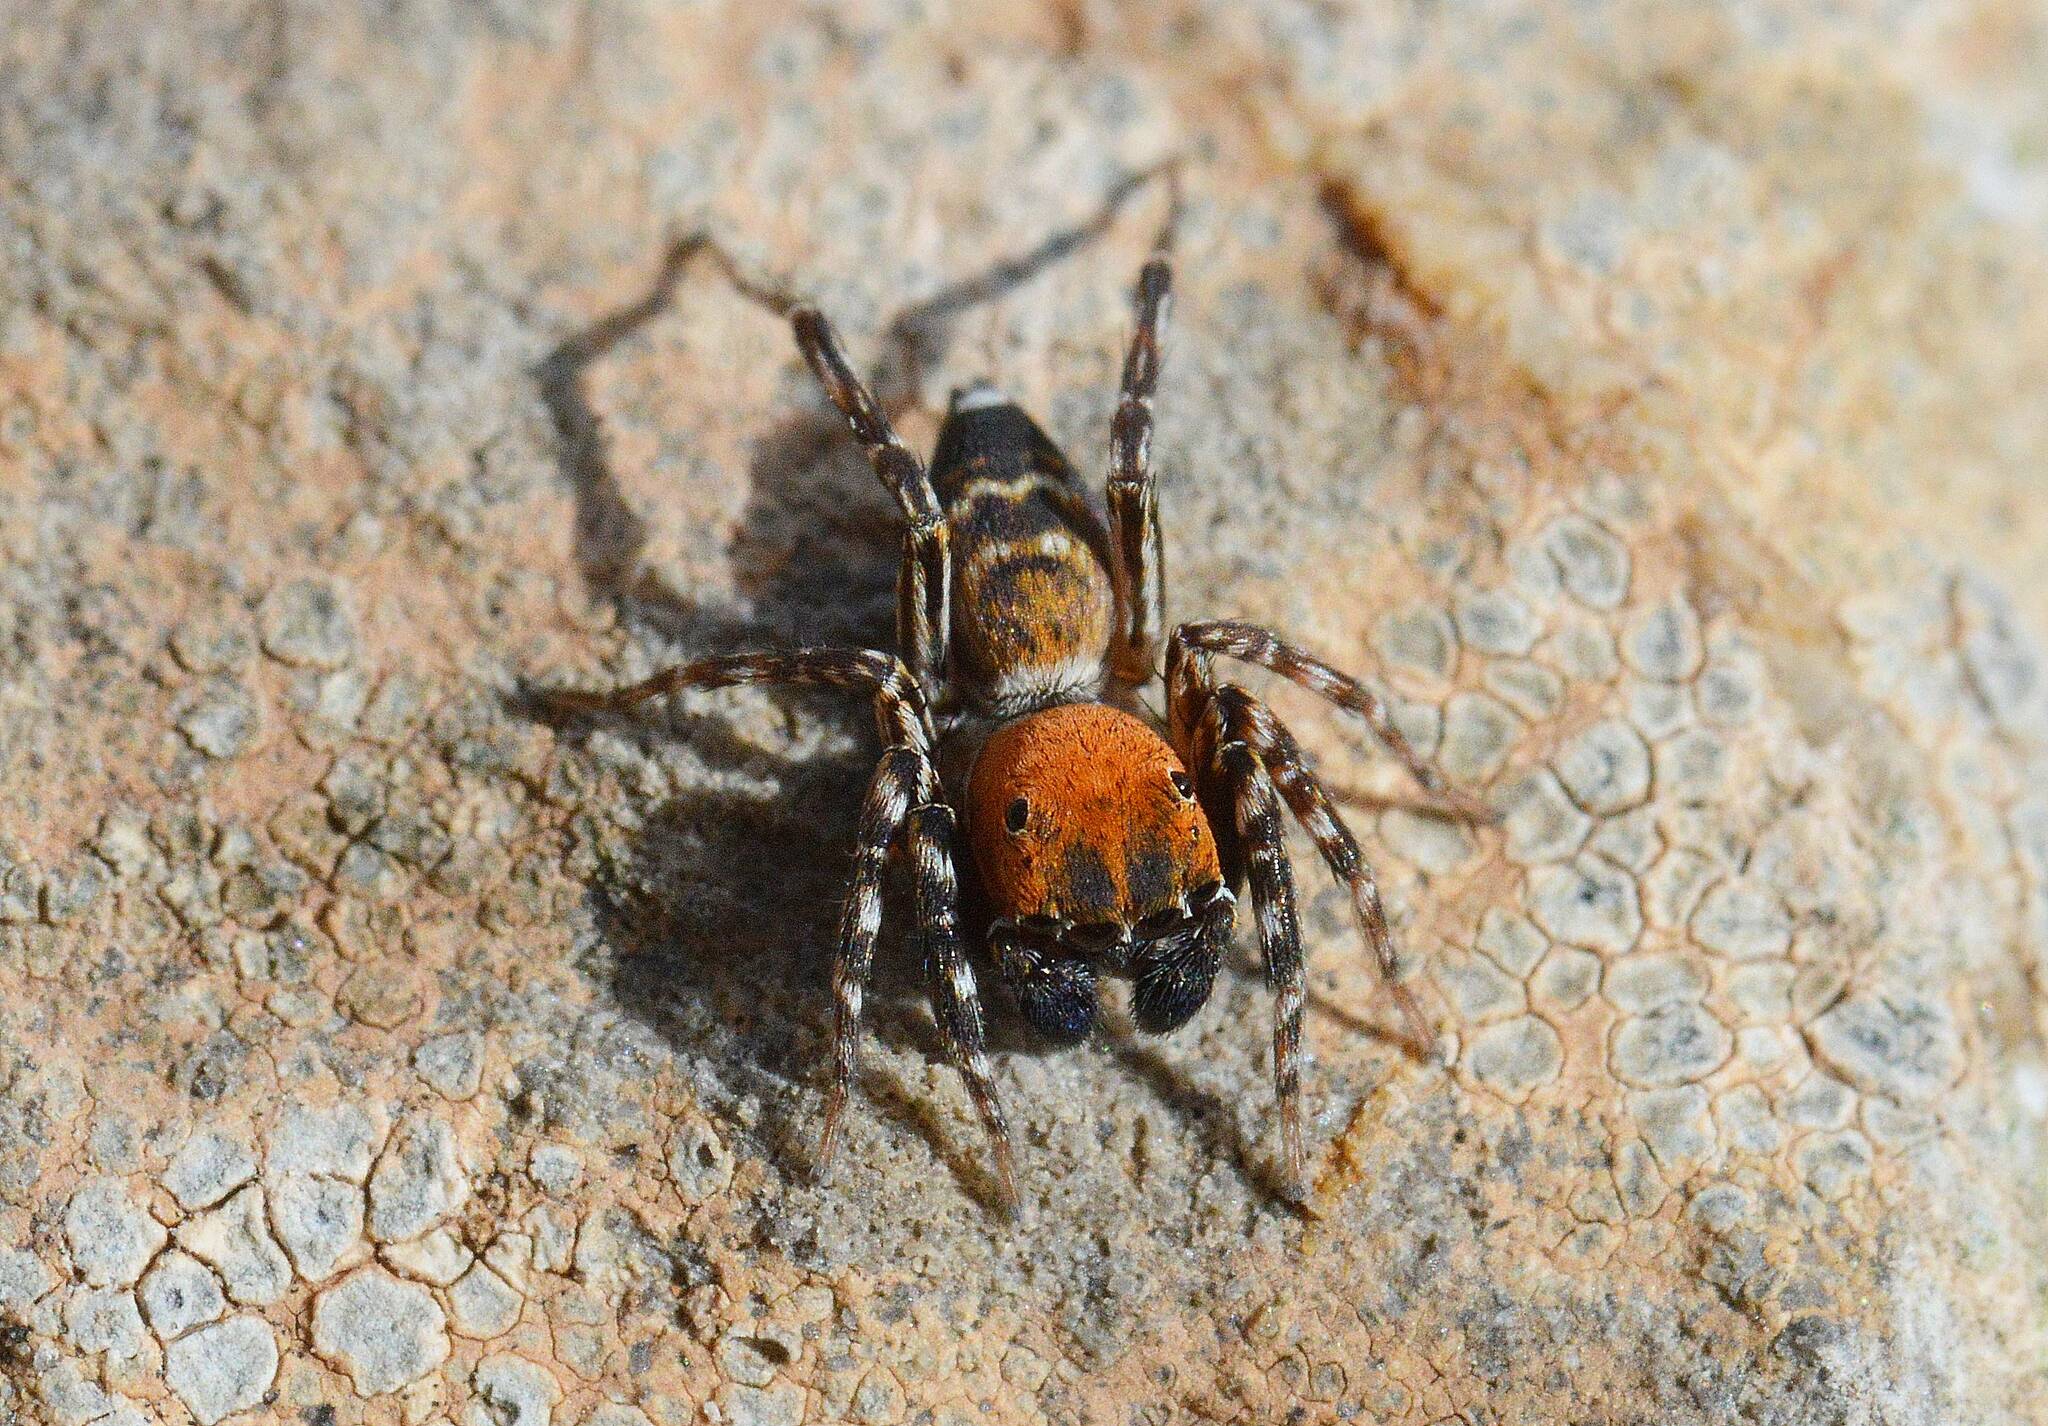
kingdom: Animalia
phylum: Arthropoda
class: Arachnida
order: Araneae
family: Salticidae
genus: Cyrba
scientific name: Cyrba algerina
